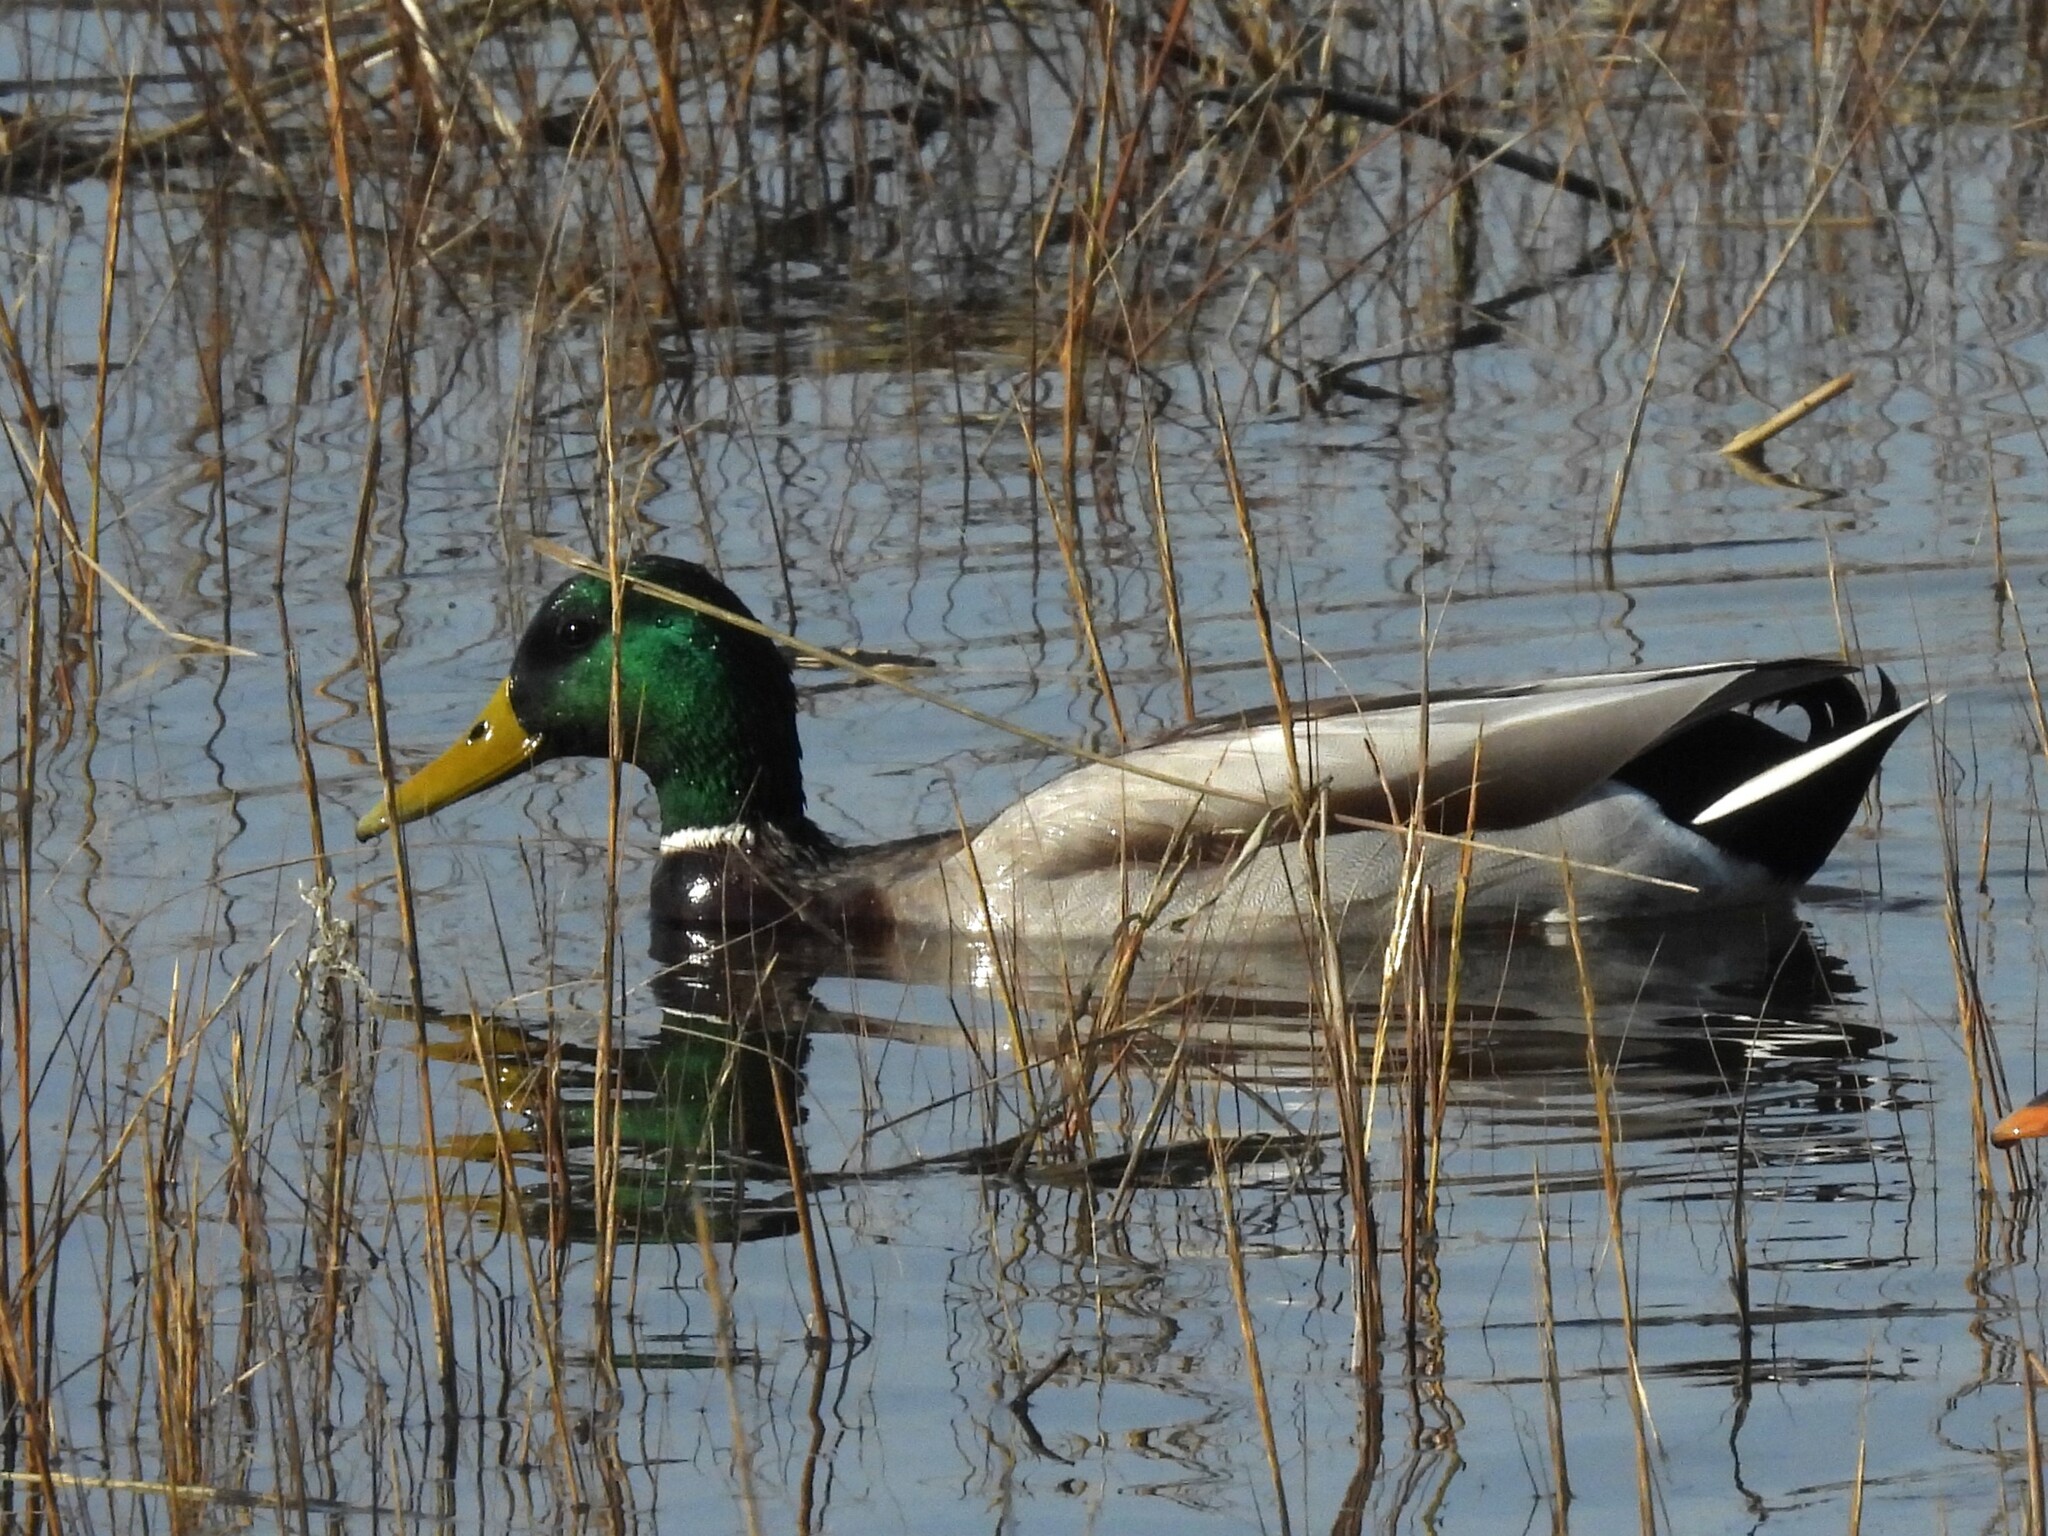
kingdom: Animalia
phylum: Chordata
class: Aves
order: Anseriformes
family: Anatidae
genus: Anas
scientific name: Anas platyrhynchos
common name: Mallard
